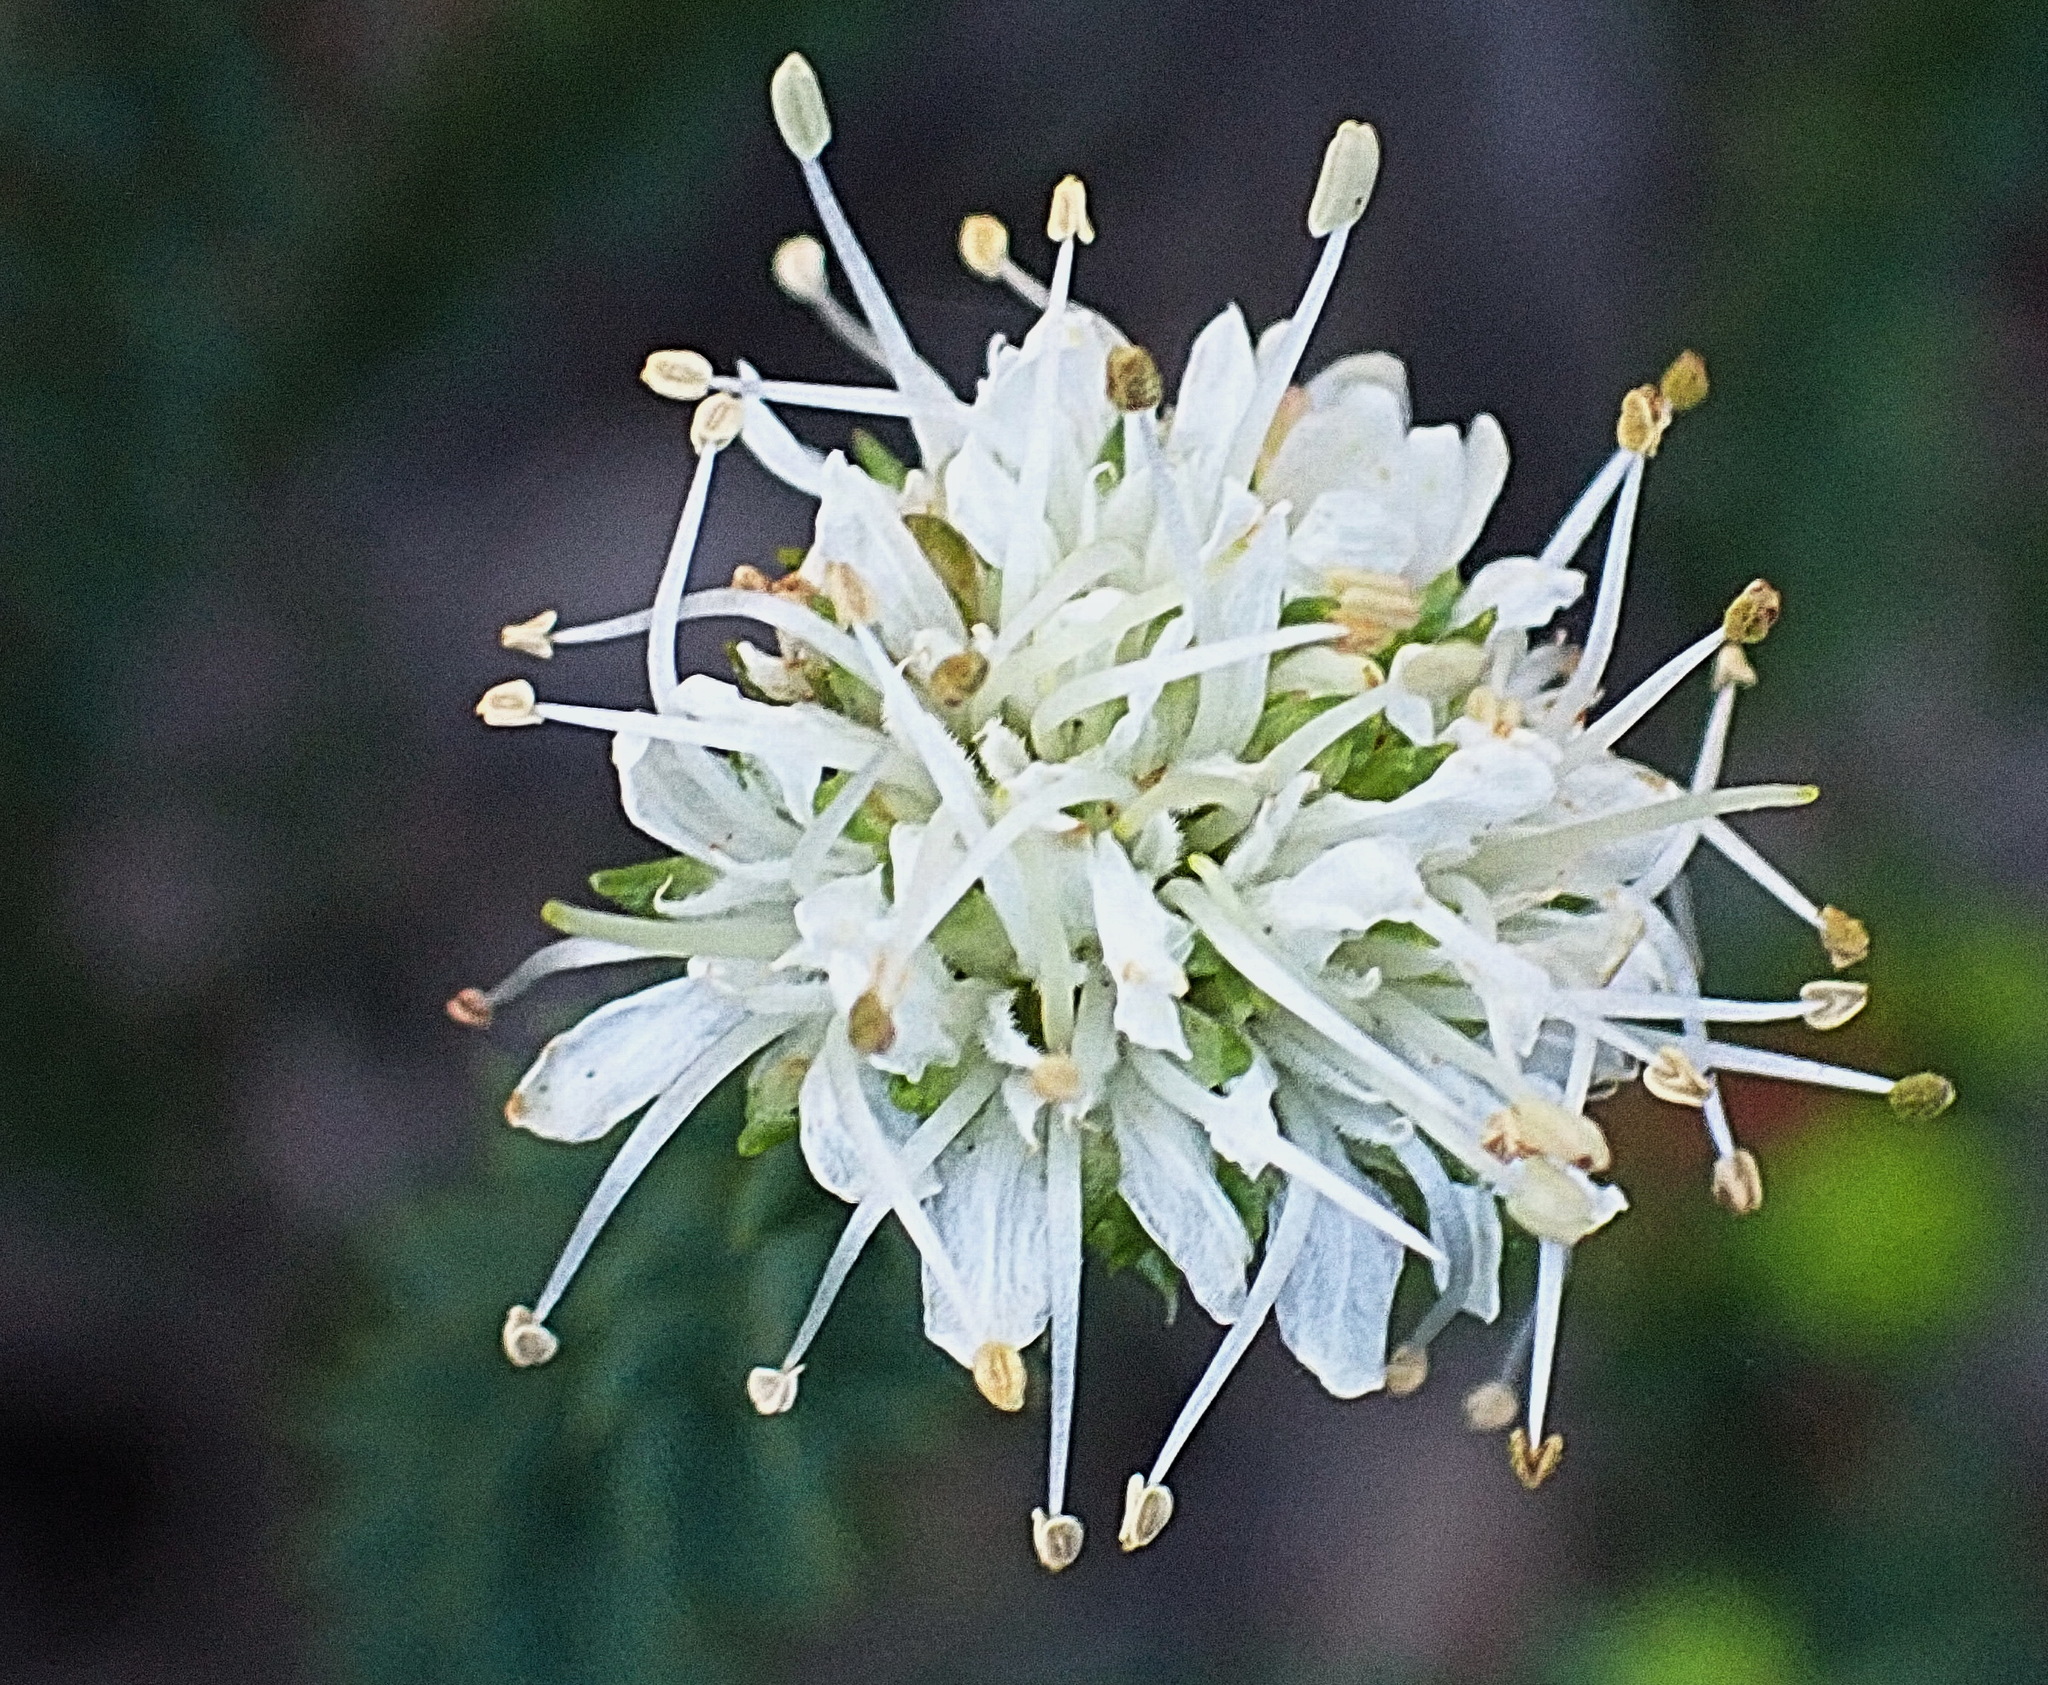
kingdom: Plantae
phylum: Tracheophyta
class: Magnoliopsida
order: Sapindales
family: Rutaceae
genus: Agathosma
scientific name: Agathosma apiculata
